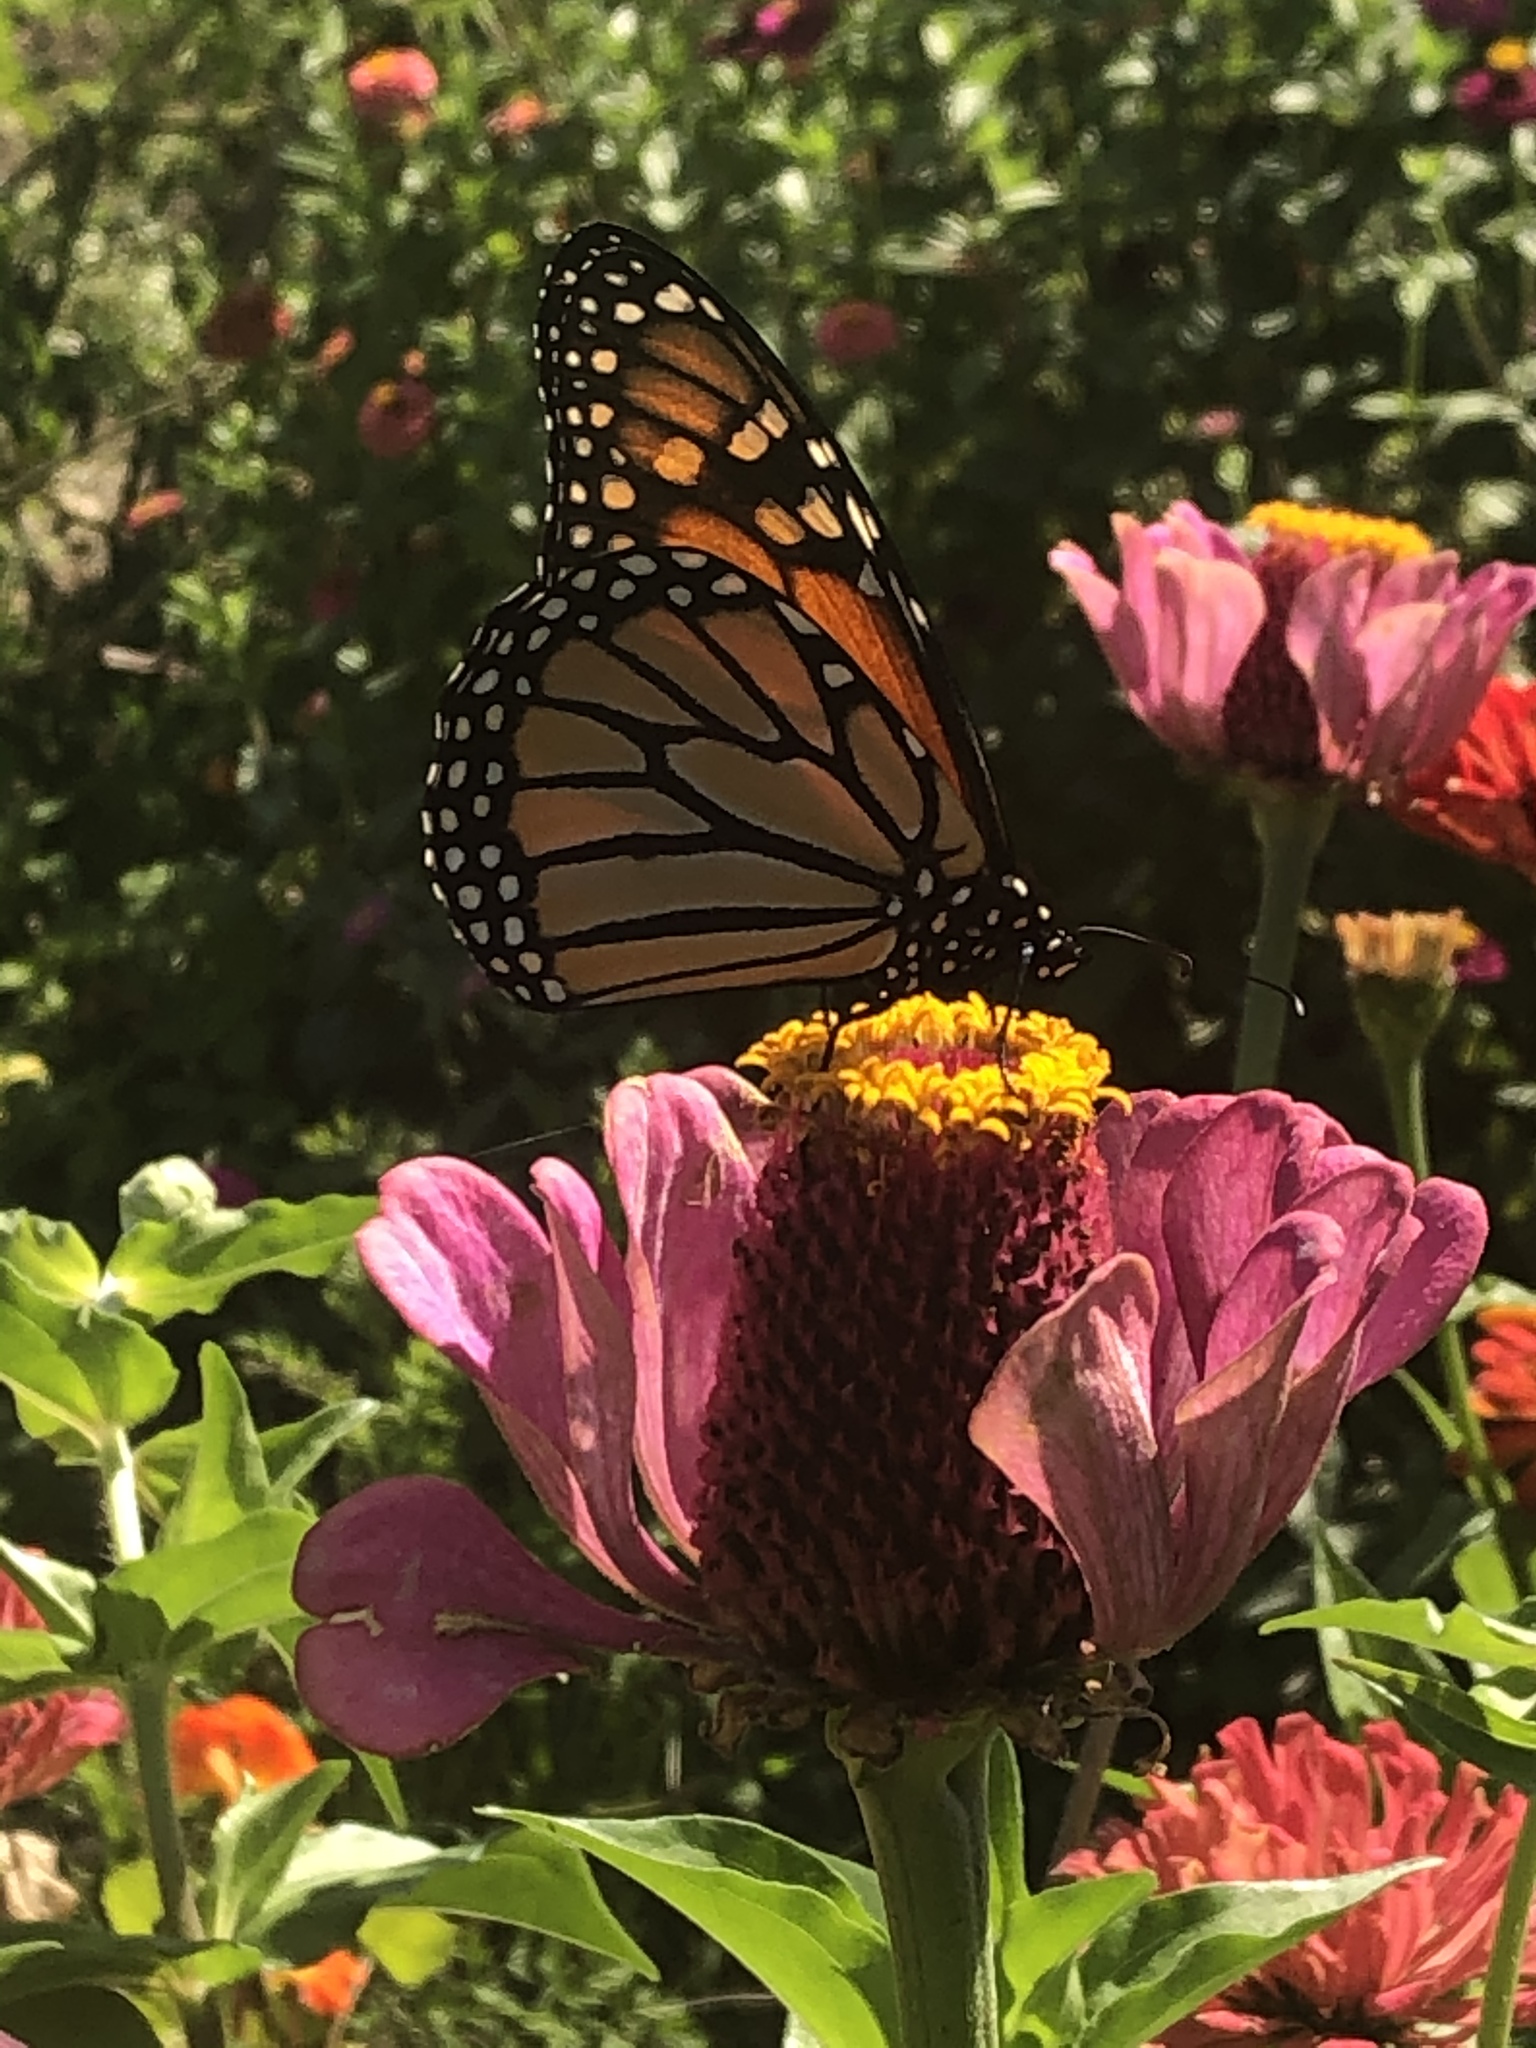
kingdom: Animalia
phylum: Arthropoda
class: Insecta
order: Lepidoptera
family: Nymphalidae
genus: Danaus
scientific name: Danaus plexippus
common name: Monarch
